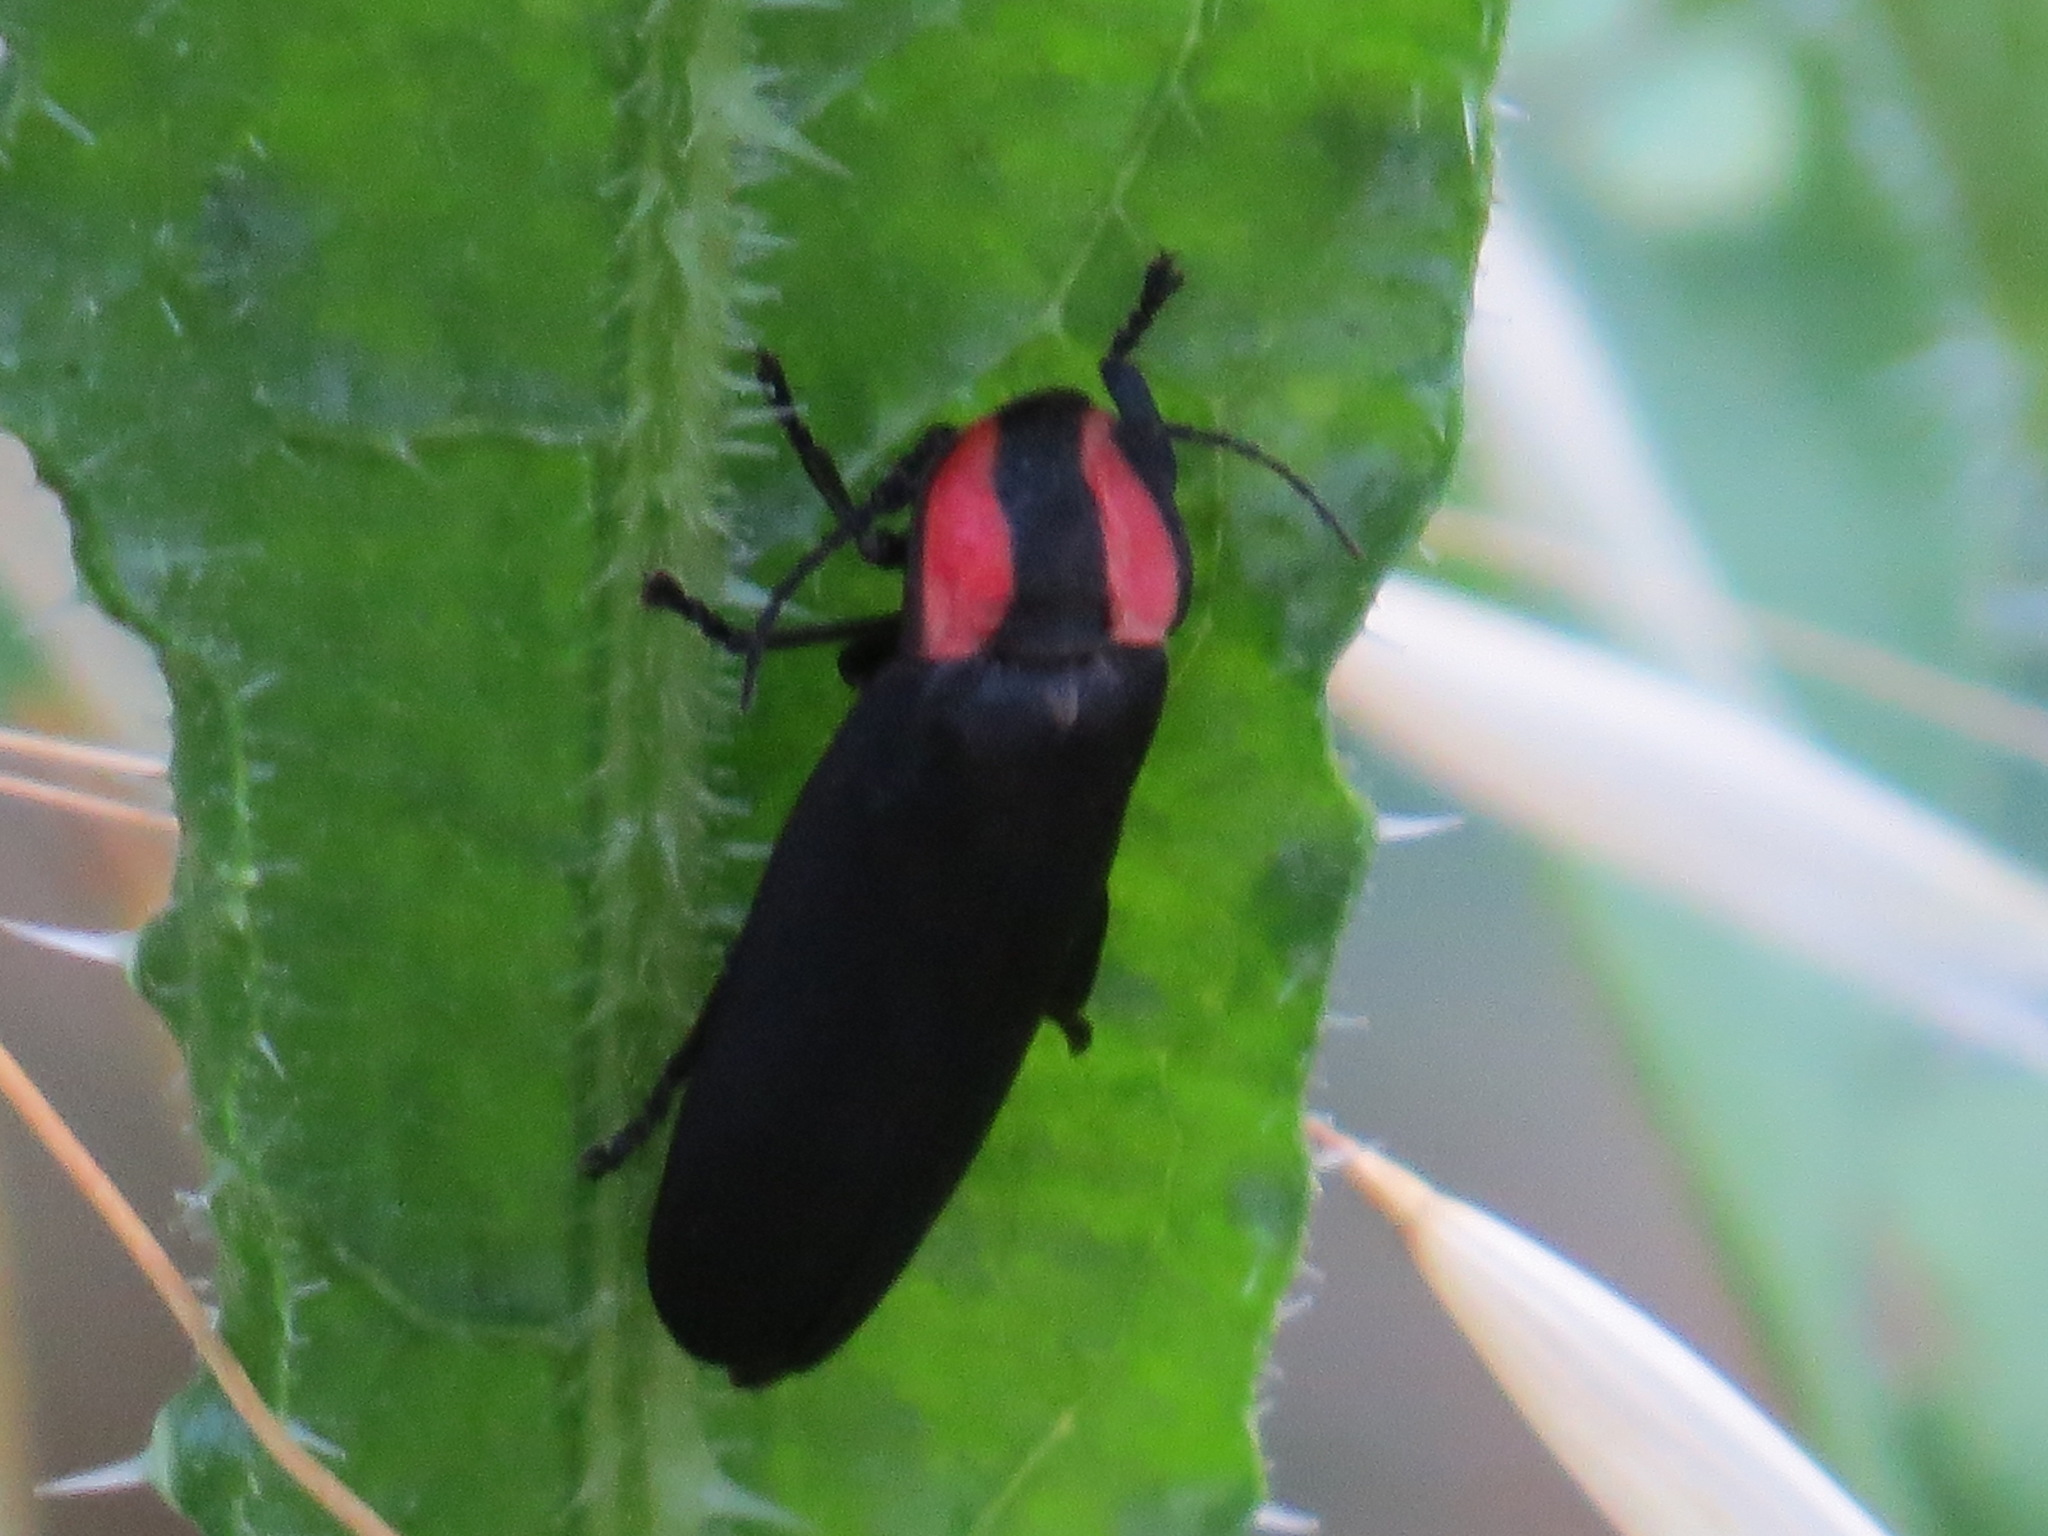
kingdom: Animalia
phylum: Arthropoda
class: Insecta
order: Coleoptera
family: Lampyridae
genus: Ellychnia
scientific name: Ellychnia megista
